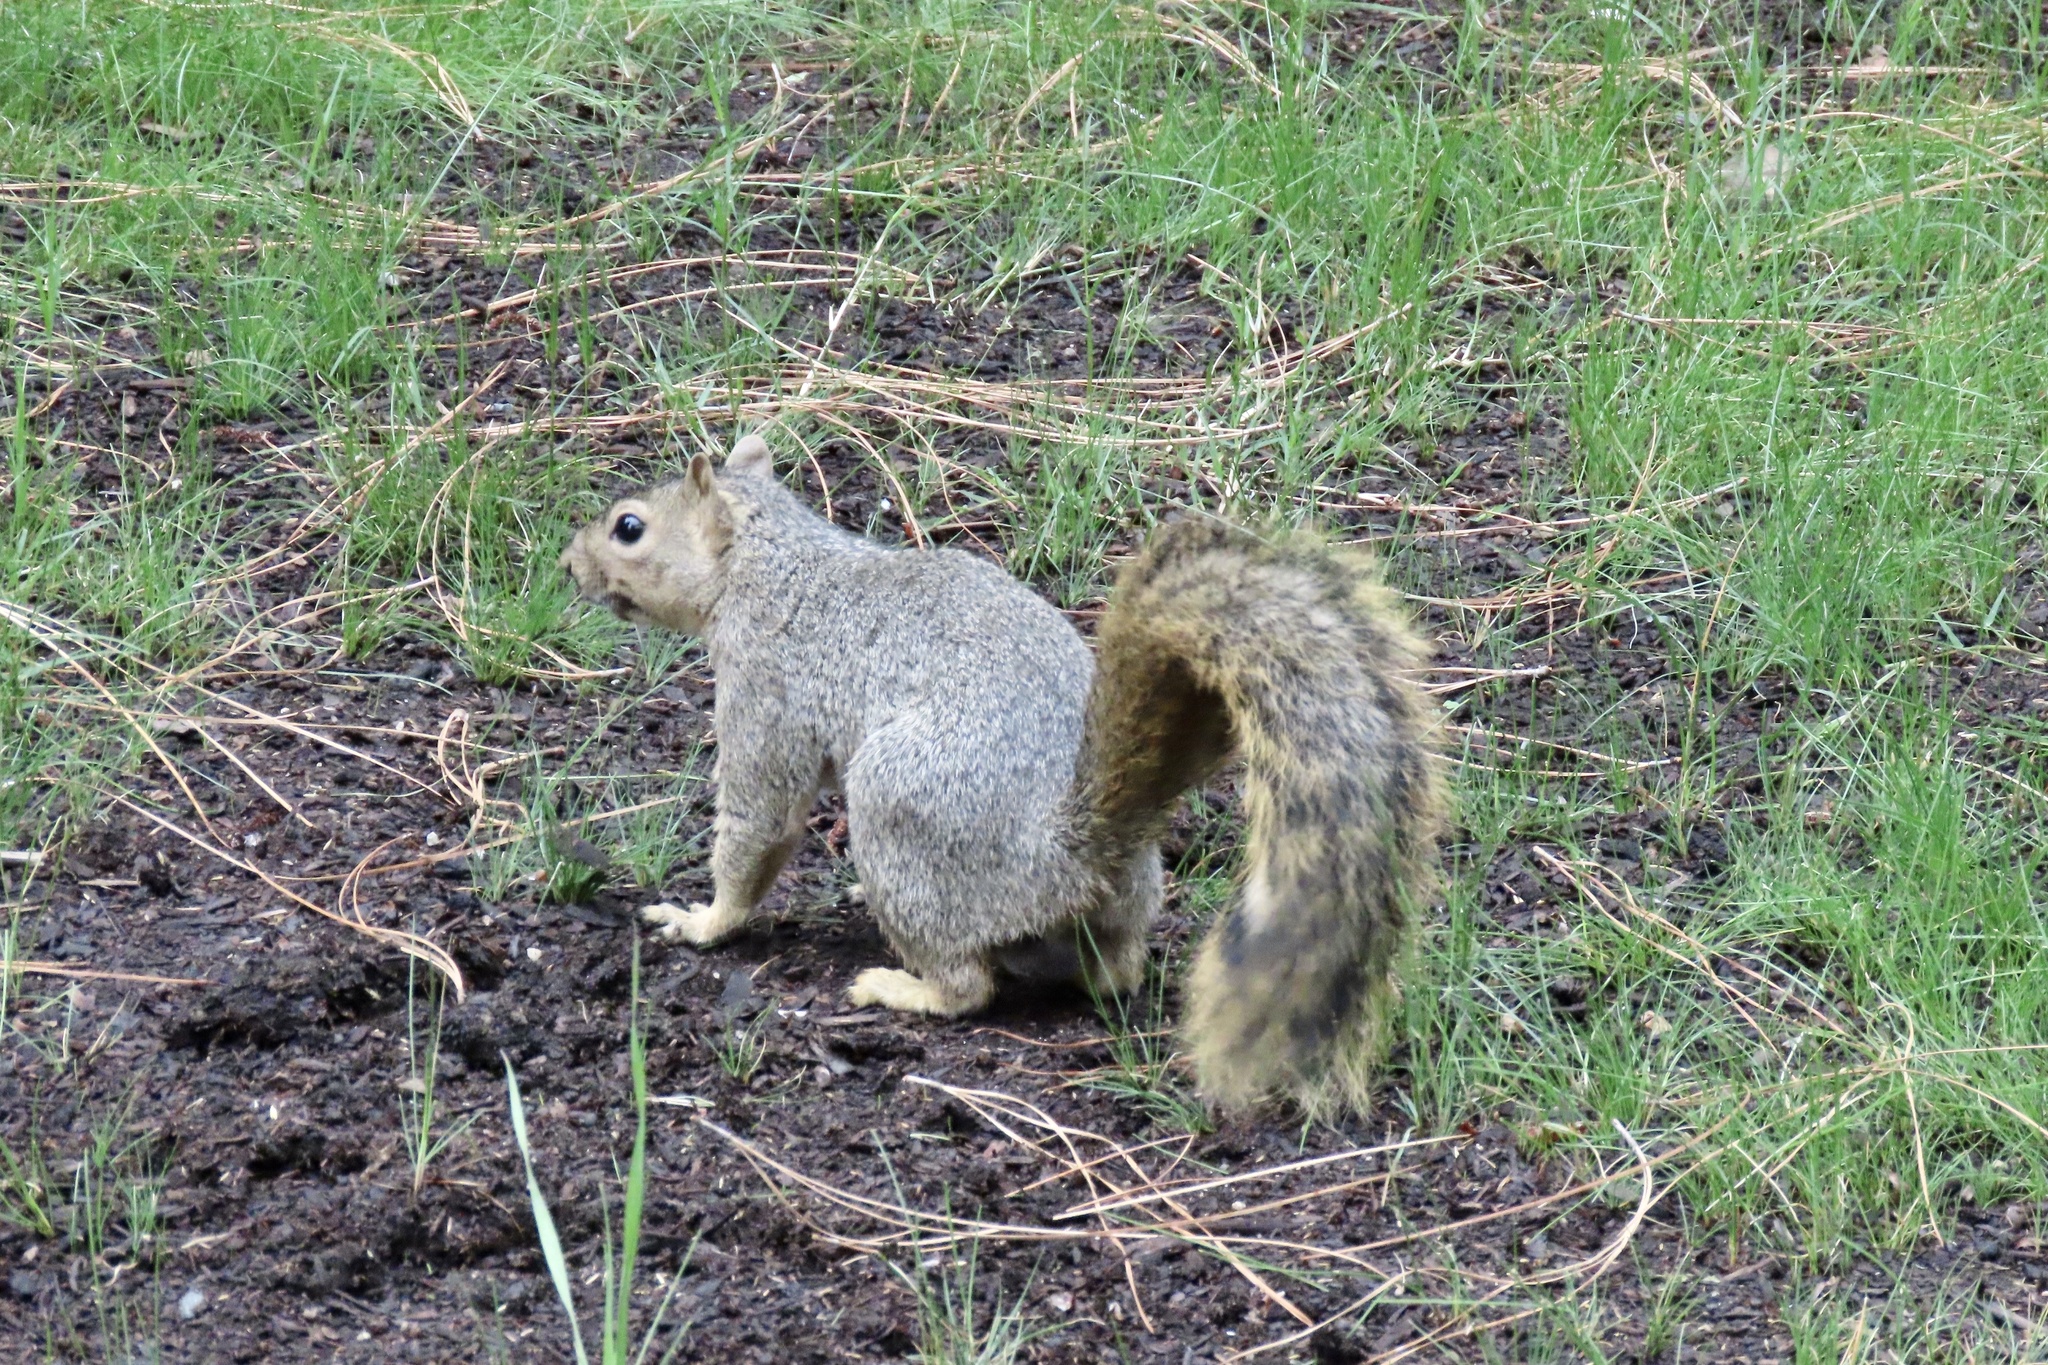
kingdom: Animalia
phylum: Chordata
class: Mammalia
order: Rodentia
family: Sciuridae
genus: Sciurus
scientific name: Sciurus niger
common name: Fox squirrel
